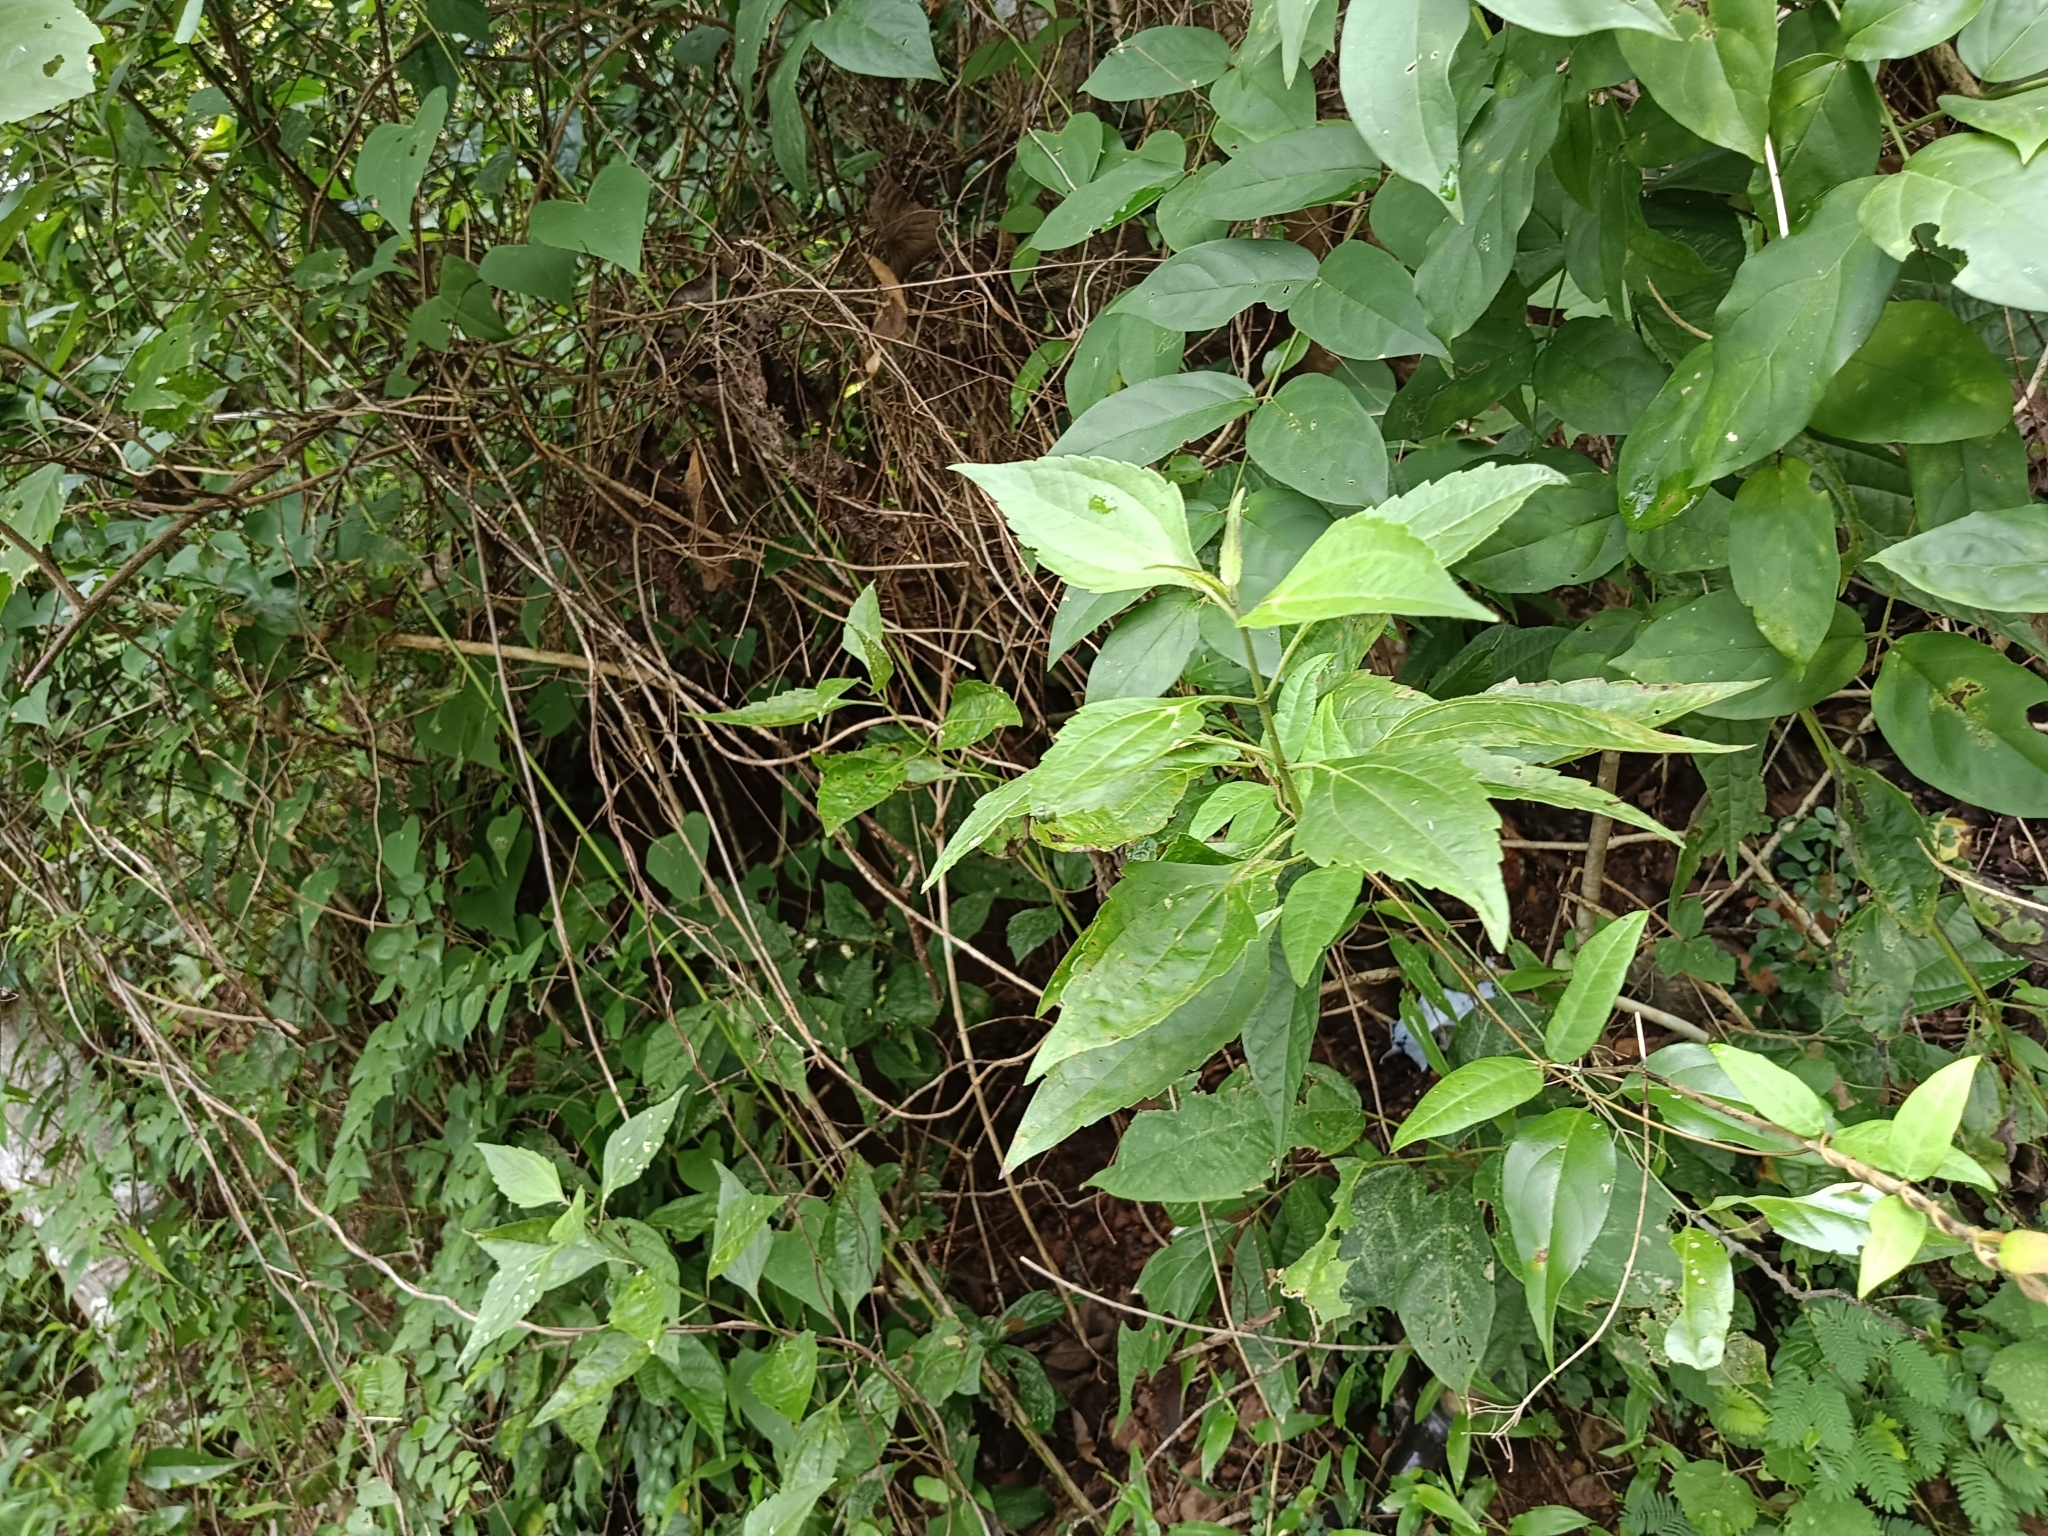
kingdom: Plantae
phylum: Tracheophyta
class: Magnoliopsida
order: Asterales
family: Asteraceae
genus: Chromolaena
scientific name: Chromolaena odorata
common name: Siamweed
